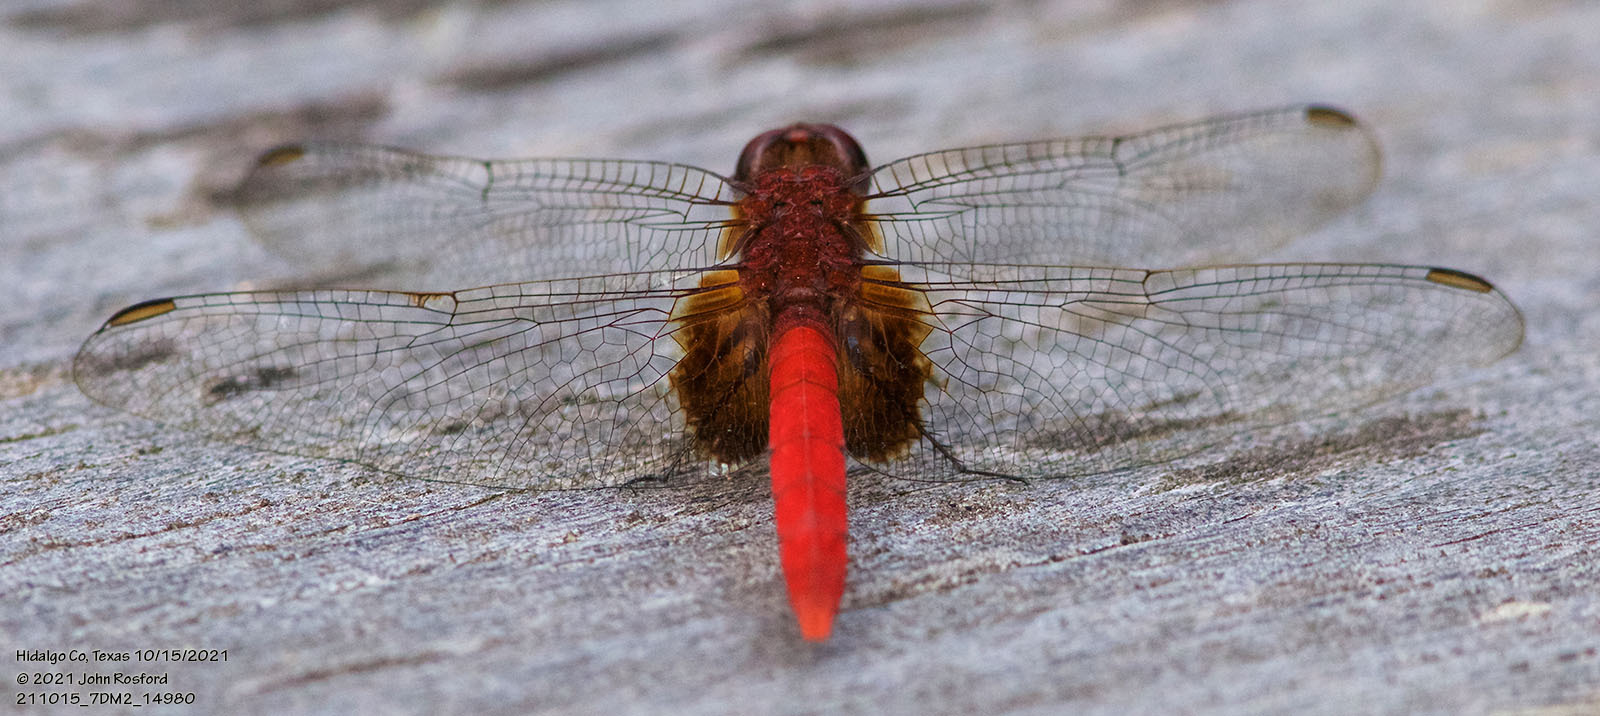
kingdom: Animalia
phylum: Arthropoda
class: Insecta
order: Odonata
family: Libellulidae
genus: Erythemis
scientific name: Erythemis mithroides
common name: Claret pondhawk
